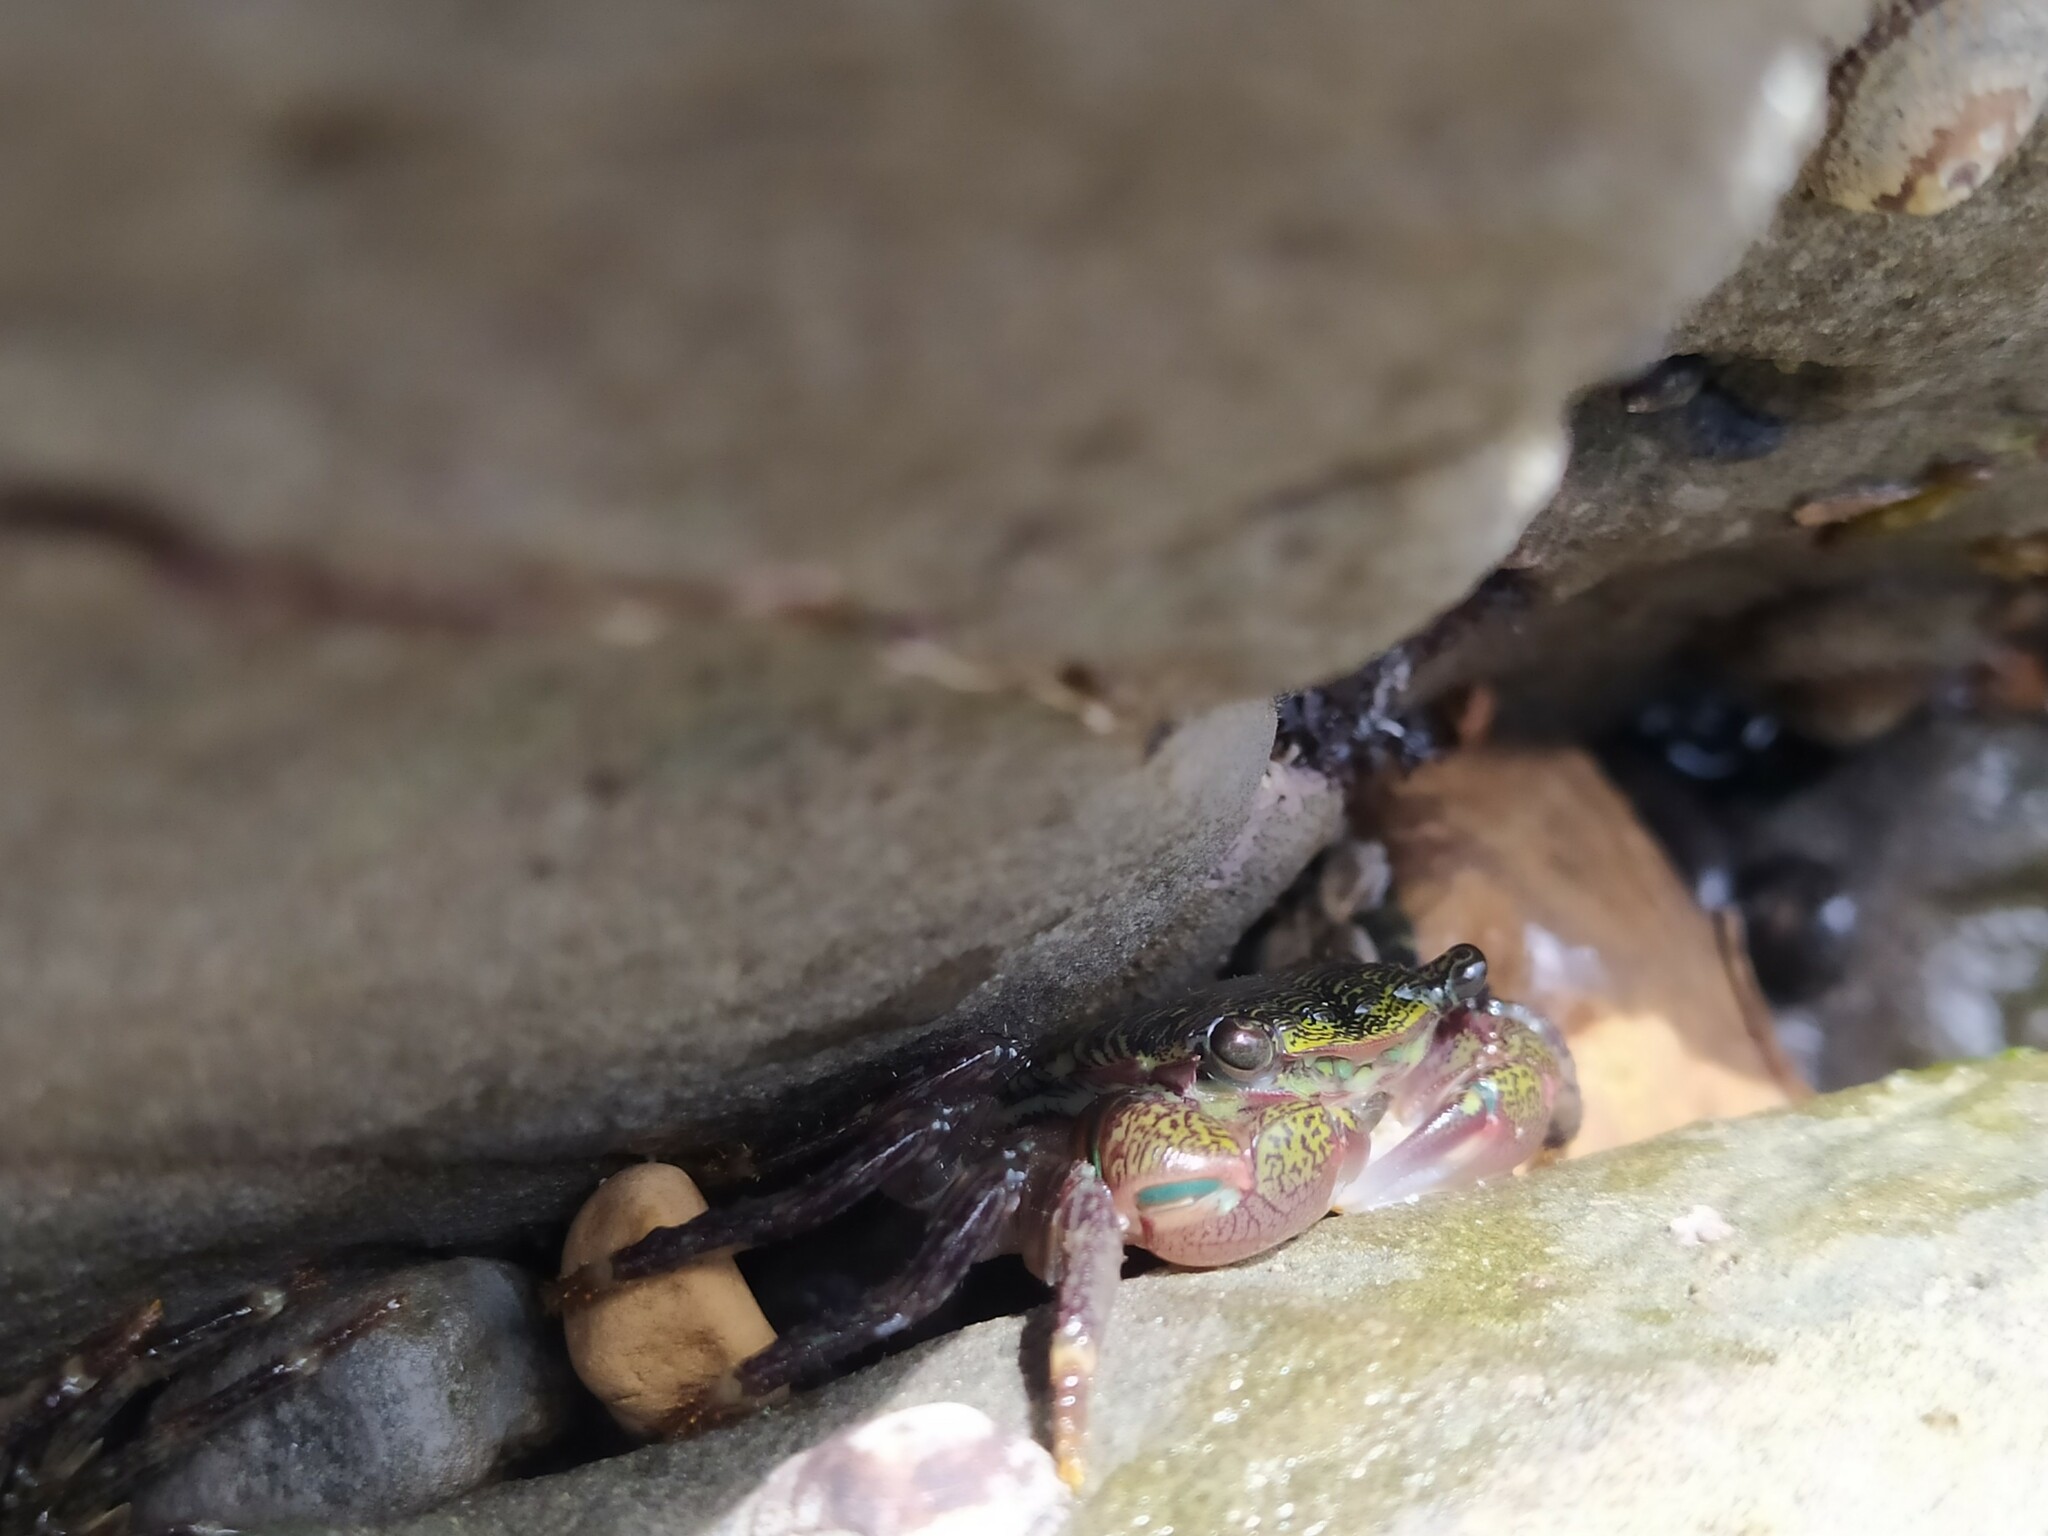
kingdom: Animalia
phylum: Arthropoda
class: Malacostraca
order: Decapoda
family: Grapsidae
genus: Pachygrapsus
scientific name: Pachygrapsus crassipes
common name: Striped shore crab
